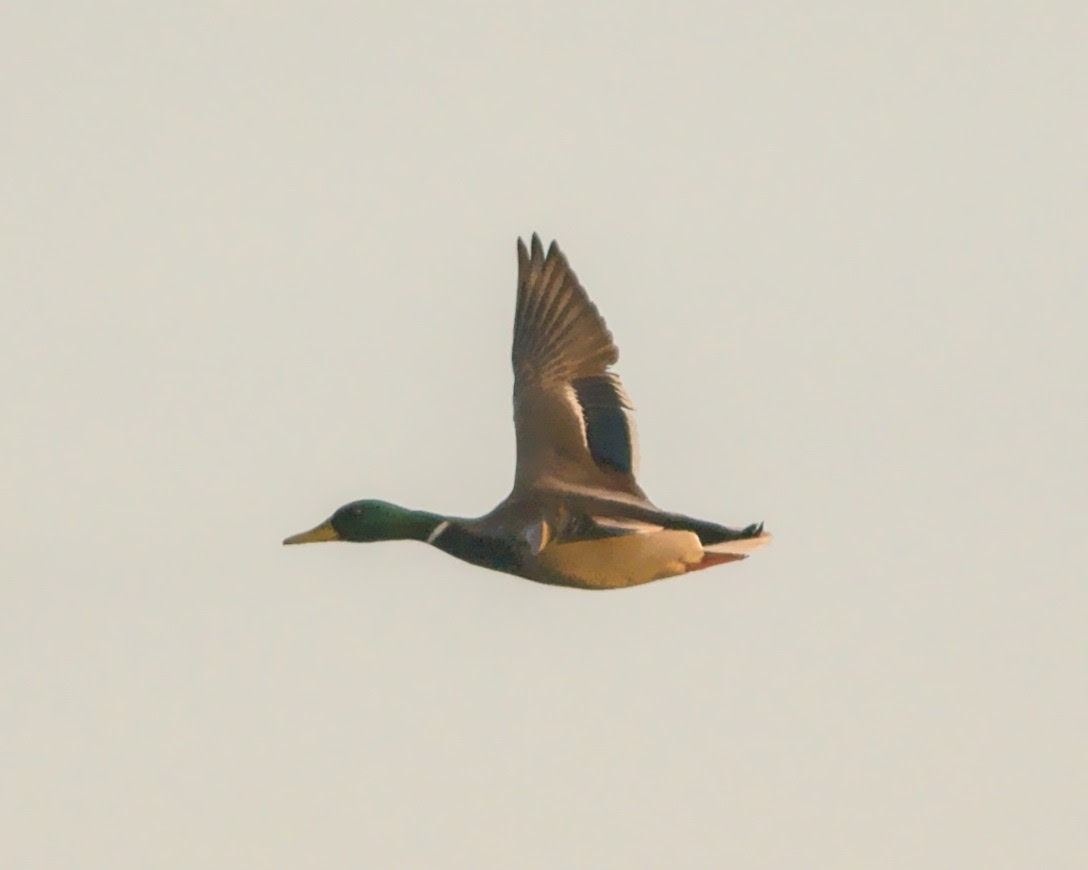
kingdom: Animalia
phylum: Chordata
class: Aves
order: Anseriformes
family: Anatidae
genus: Anas
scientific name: Anas platyrhynchos
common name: Mallard
